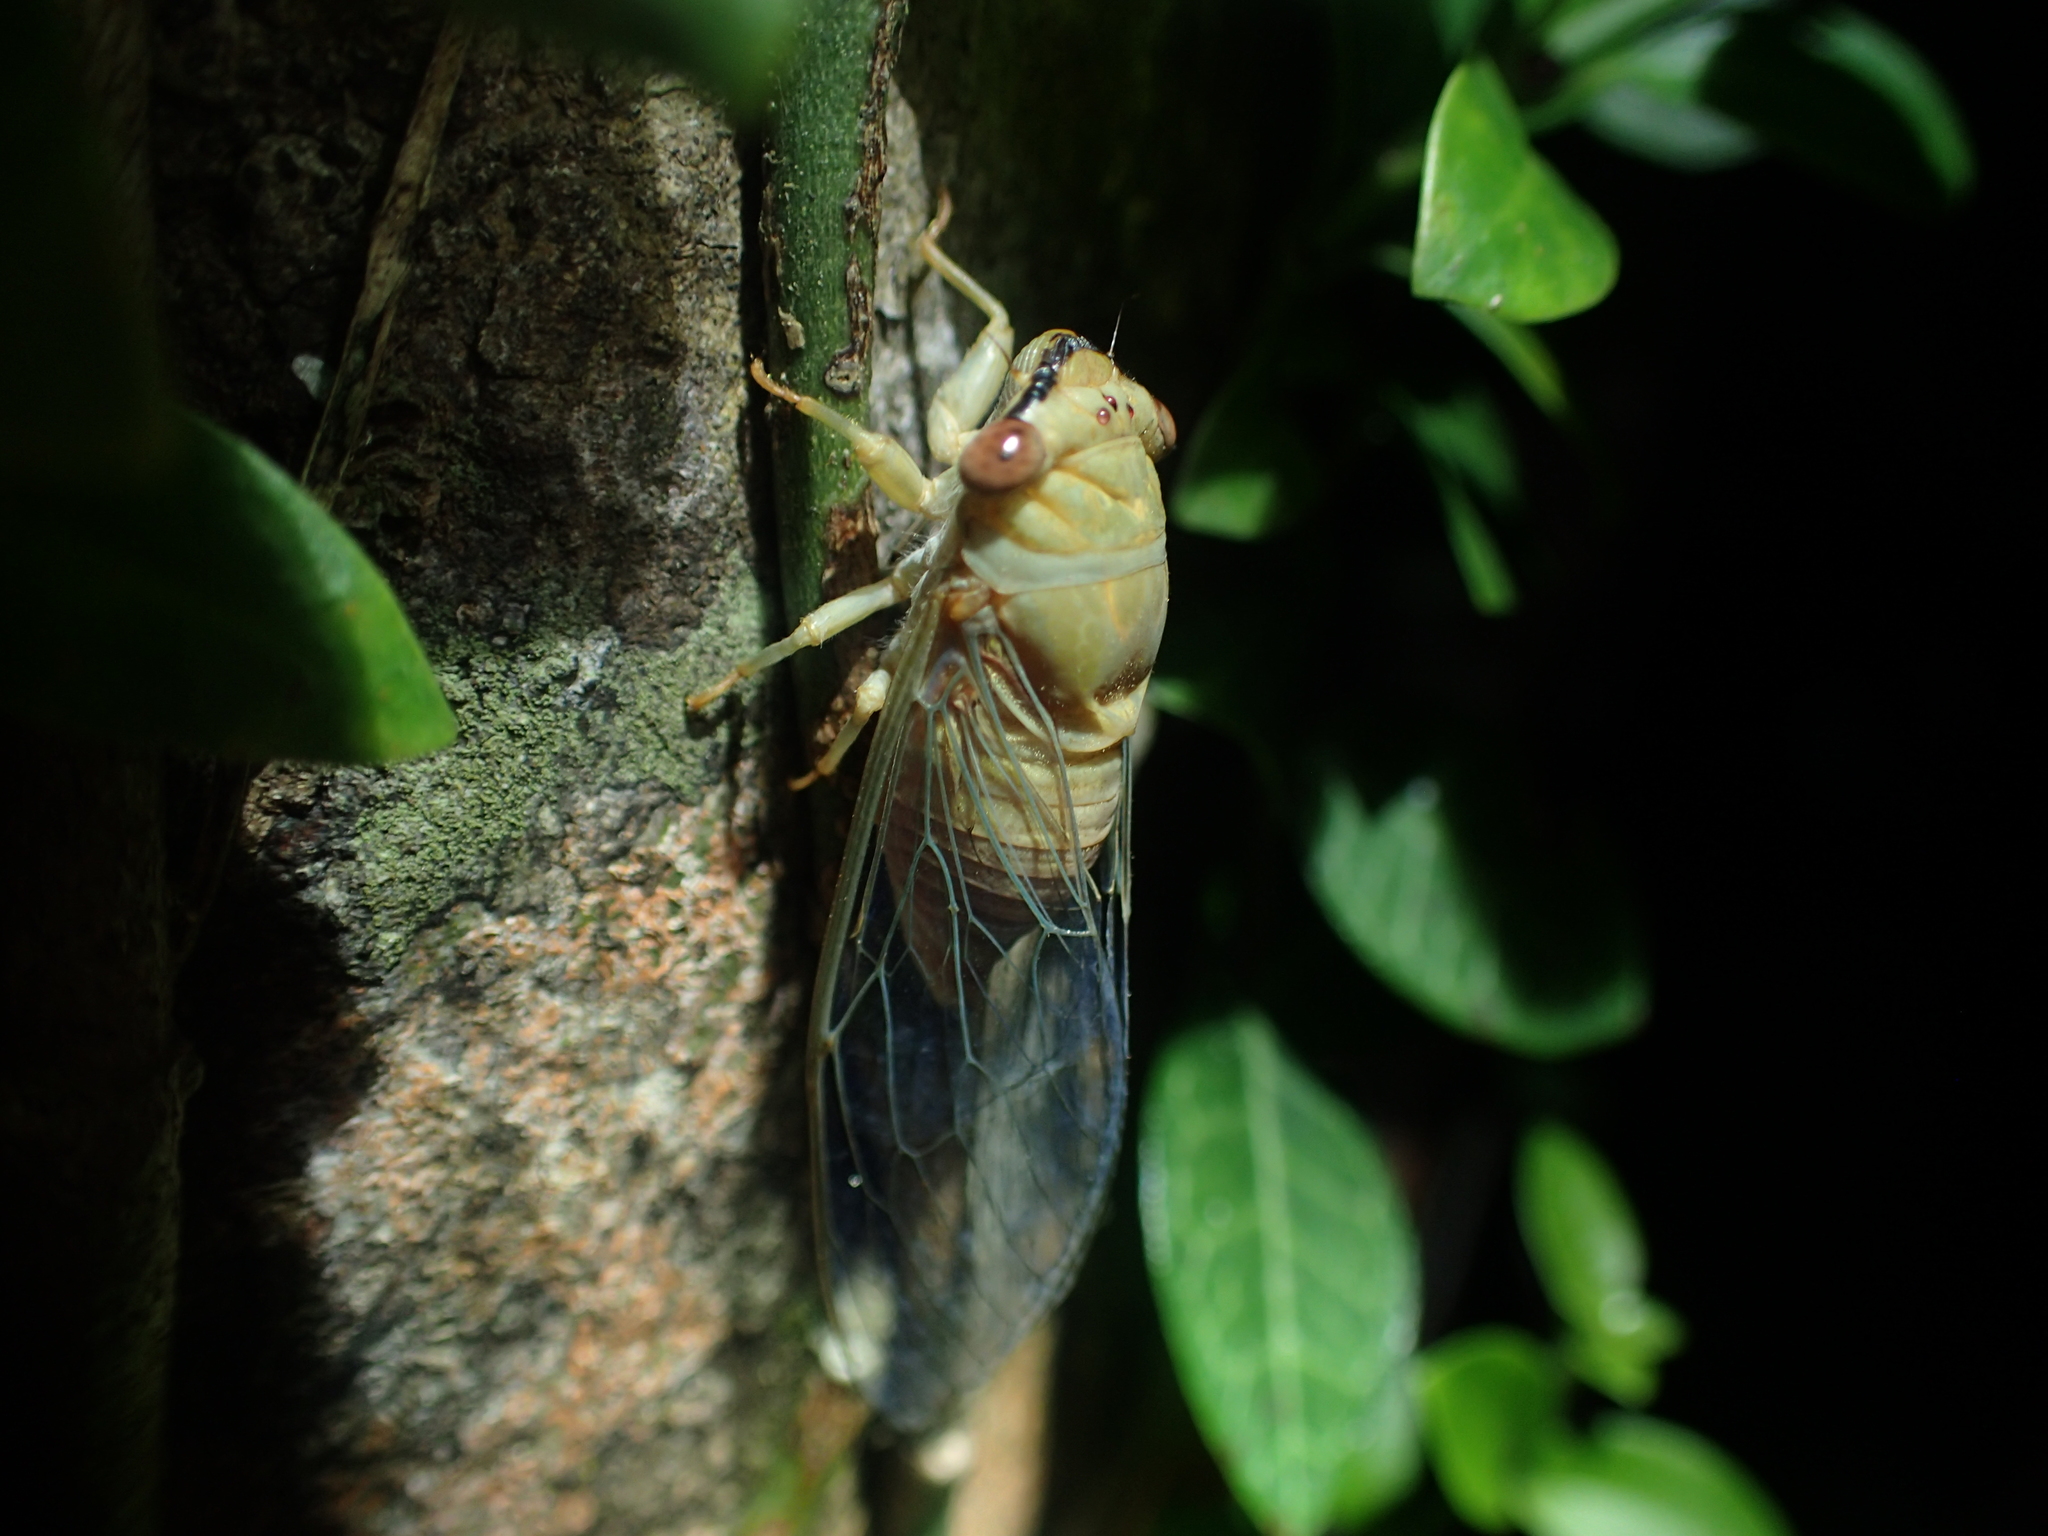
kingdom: Animalia
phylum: Arthropoda
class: Insecta
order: Hemiptera
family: Cicadidae
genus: Chremistica
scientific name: Chremistica ochracea
